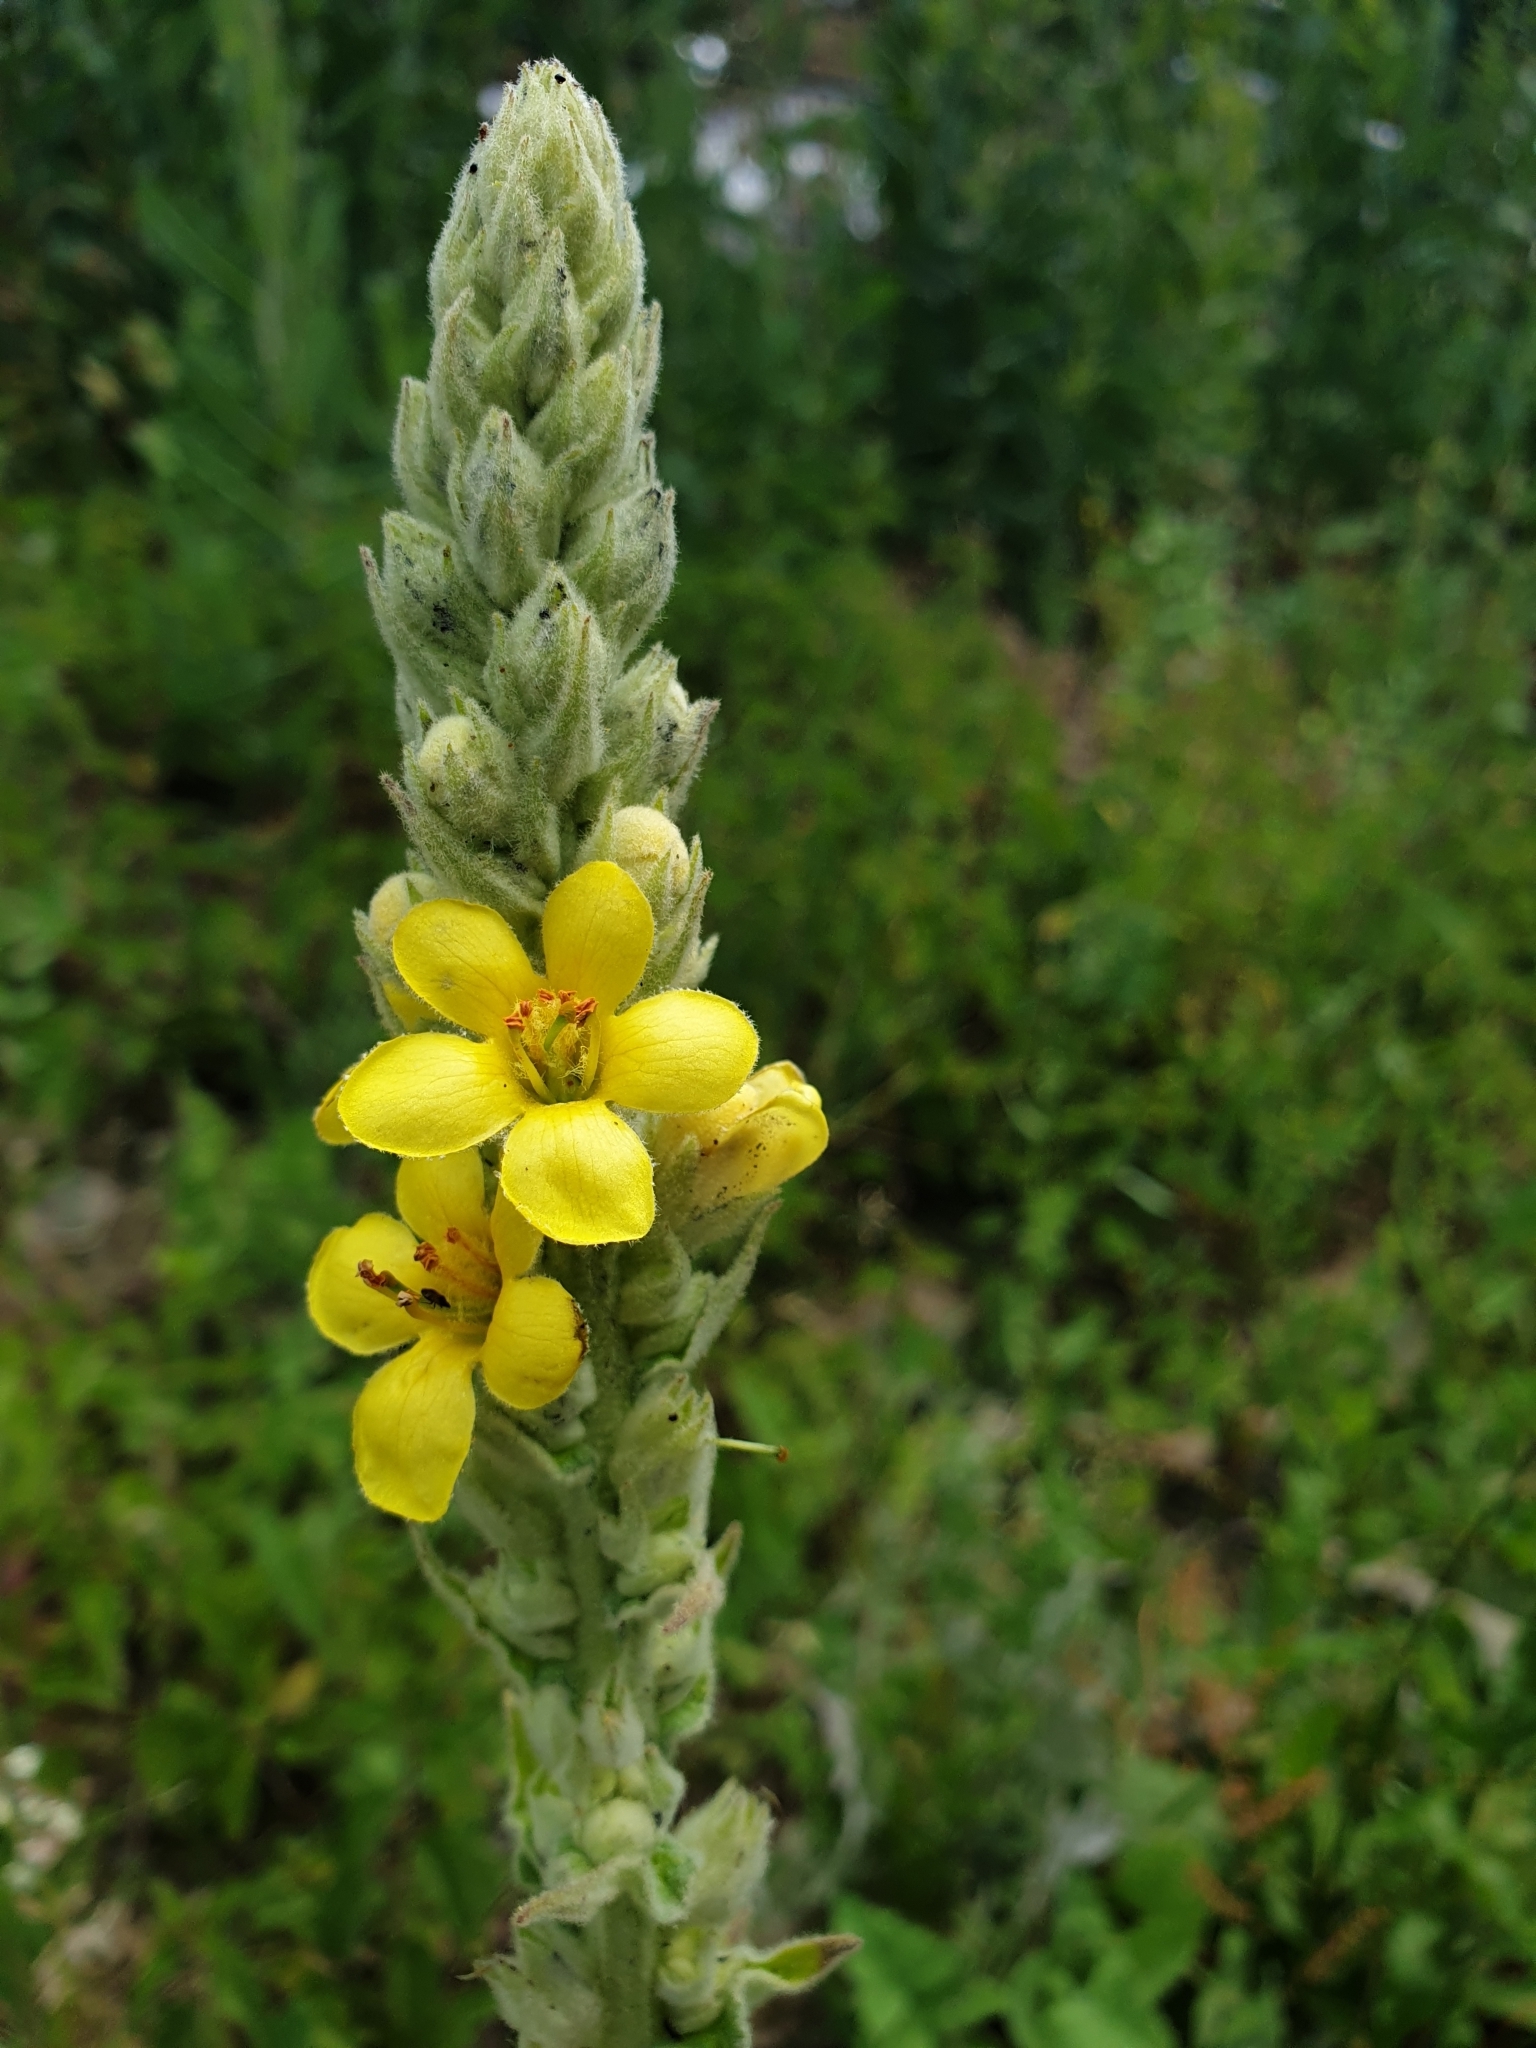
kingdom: Plantae
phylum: Tracheophyta
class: Magnoliopsida
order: Lamiales
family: Scrophulariaceae
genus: Verbascum
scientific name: Verbascum thapsus
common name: Common mullein
